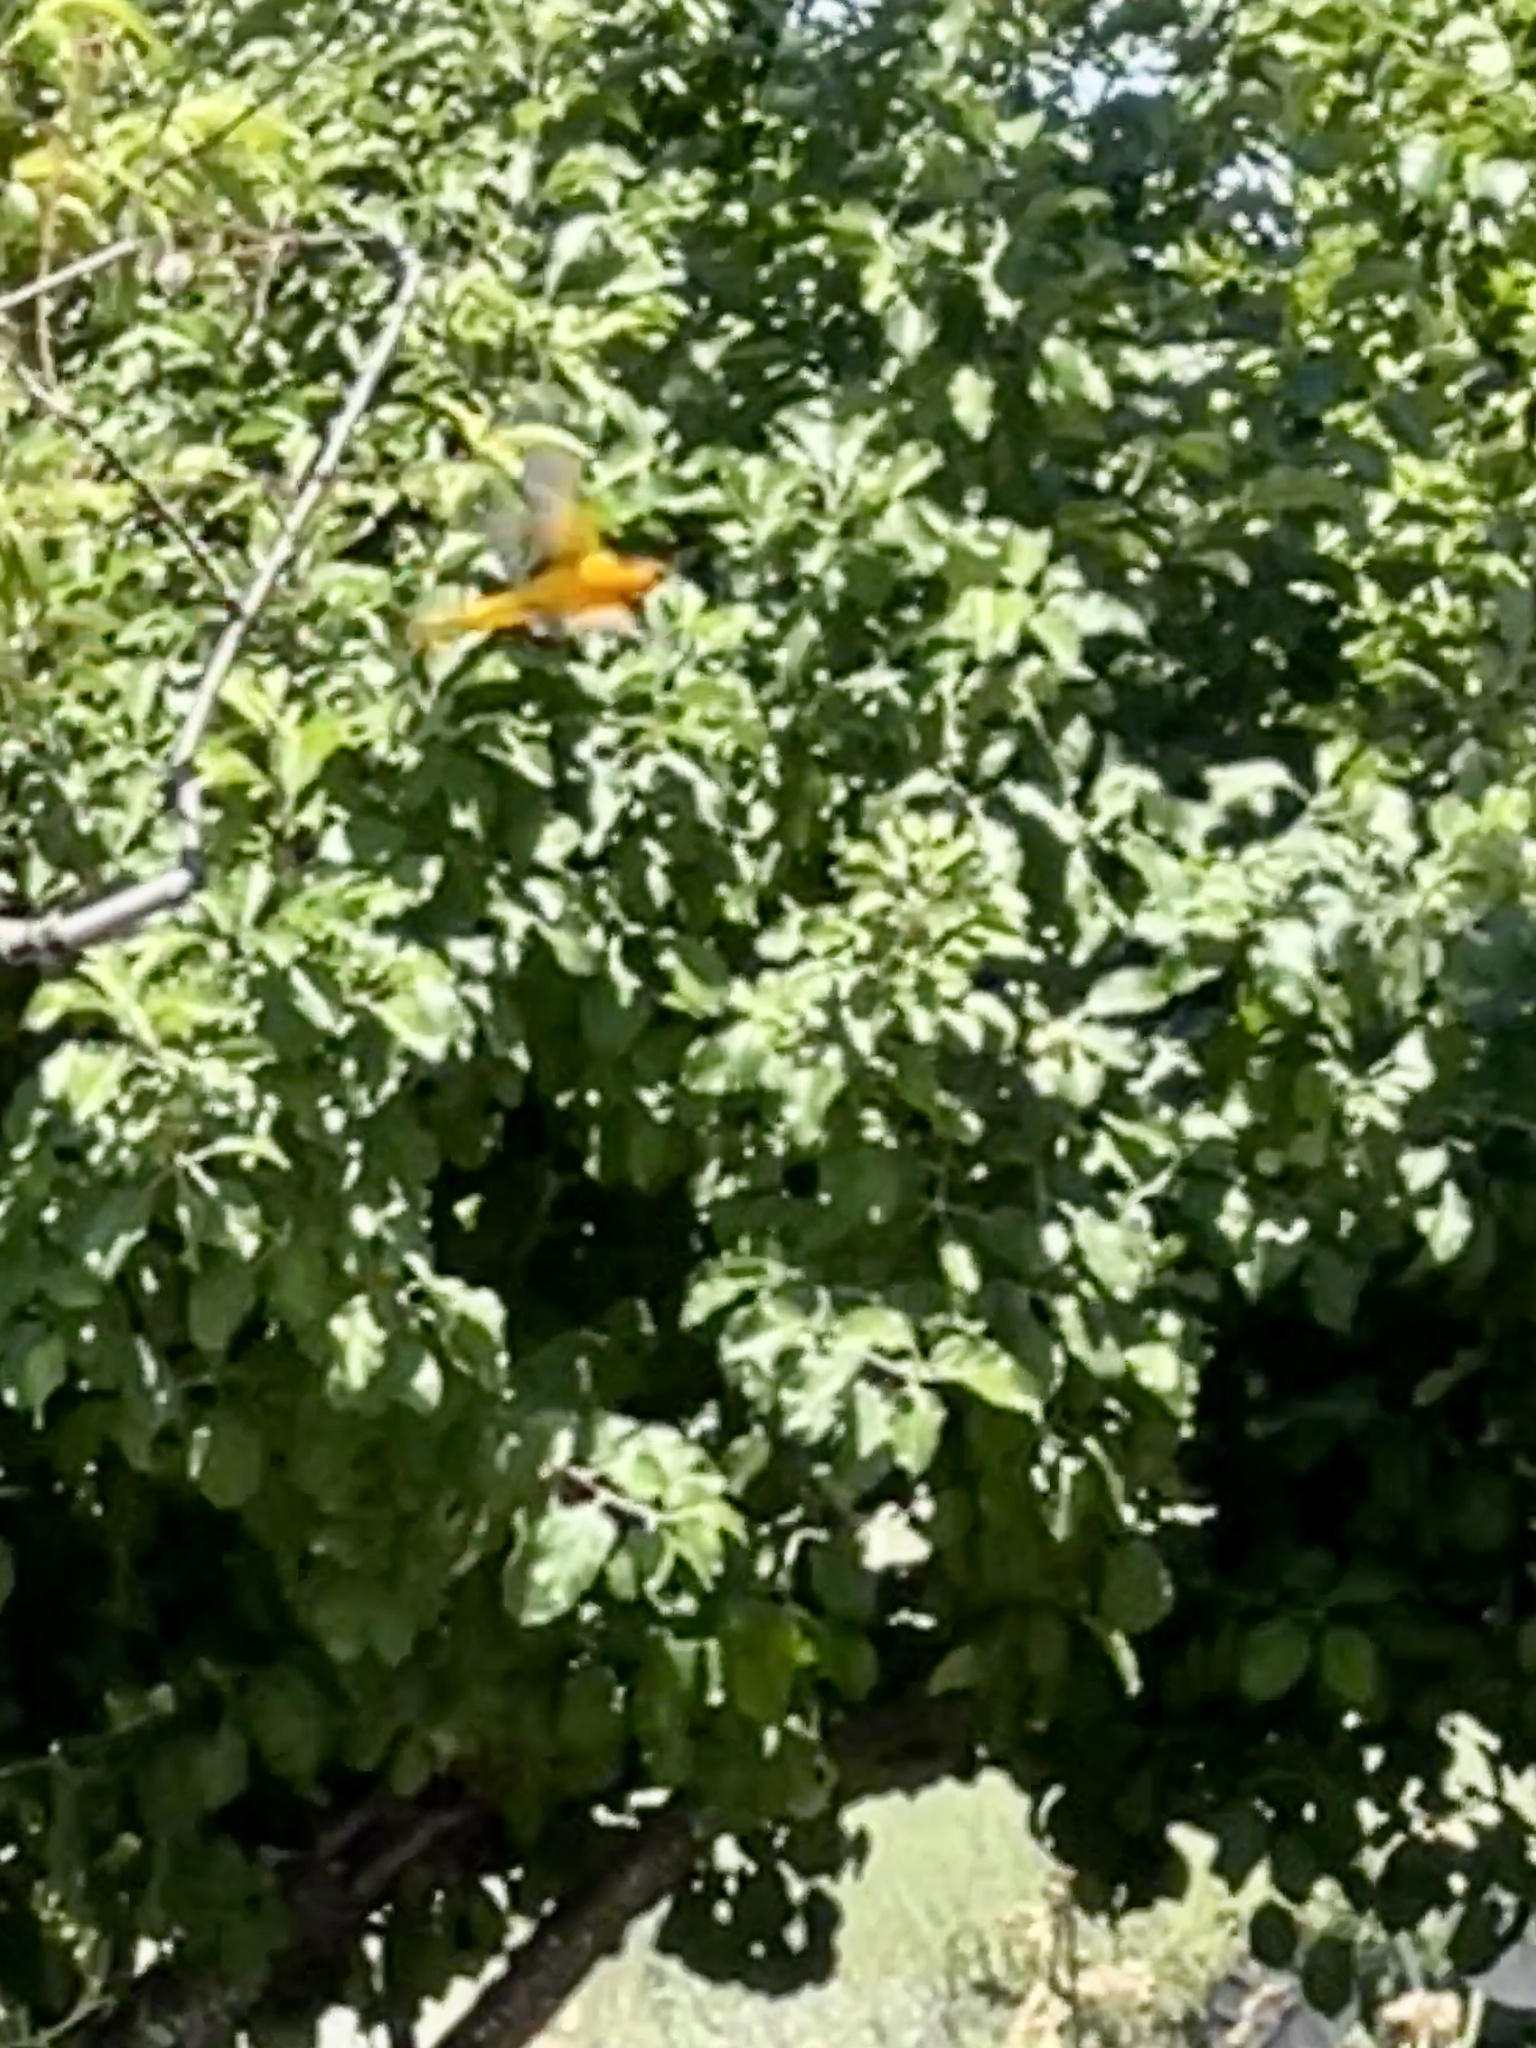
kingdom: Animalia
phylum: Chordata
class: Aves
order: Passeriformes
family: Icteridae
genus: Icterus
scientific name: Icterus cucullatus
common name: Hooded oriole
